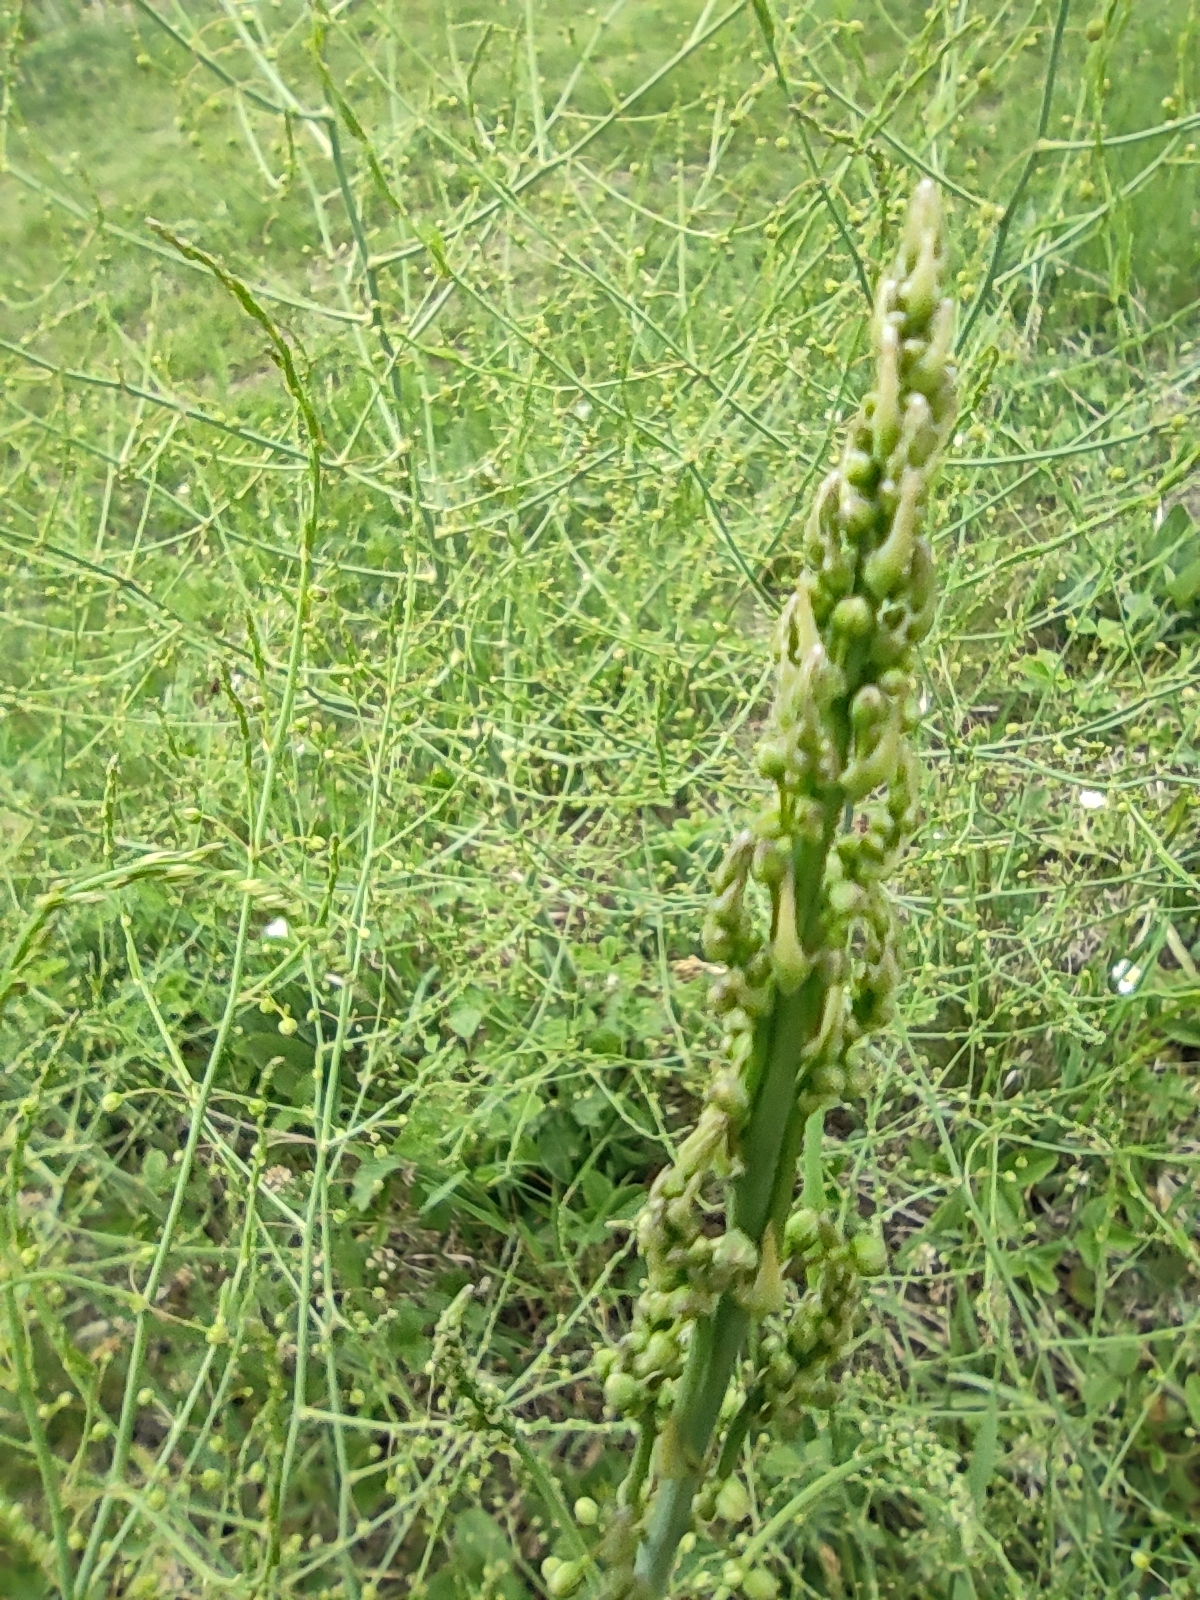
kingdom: Plantae
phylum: Tracheophyta
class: Liliopsida
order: Asparagales
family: Asparagaceae
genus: Asparagus
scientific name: Asparagus officinalis
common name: Garden asparagus
